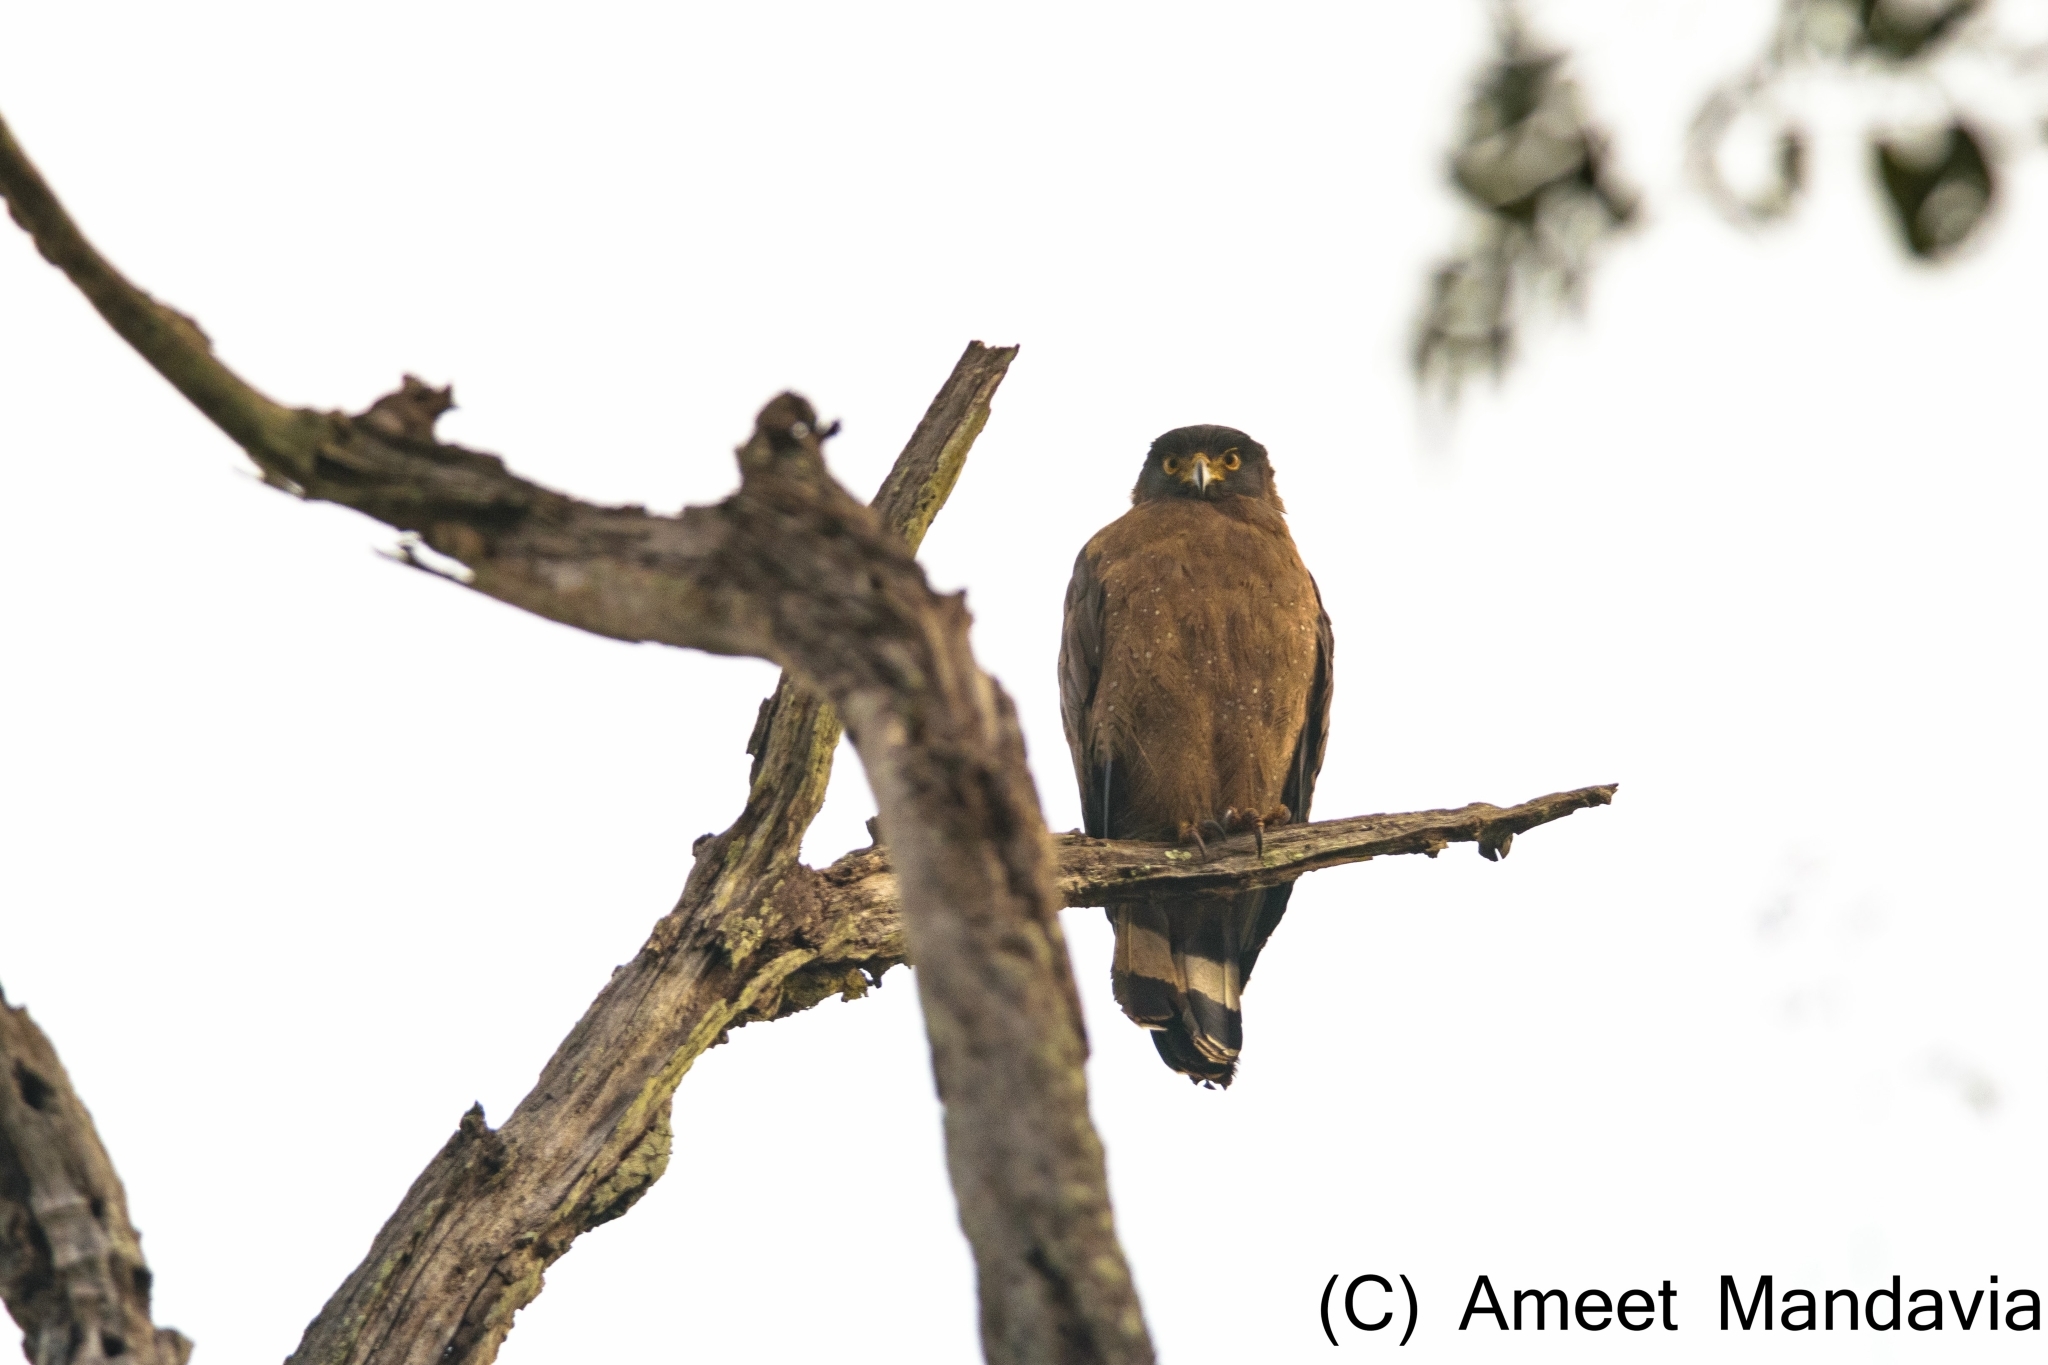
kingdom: Animalia
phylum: Chordata
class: Aves
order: Accipitriformes
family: Accipitridae
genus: Spilornis
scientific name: Spilornis cheela
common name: Crested serpent eagle
